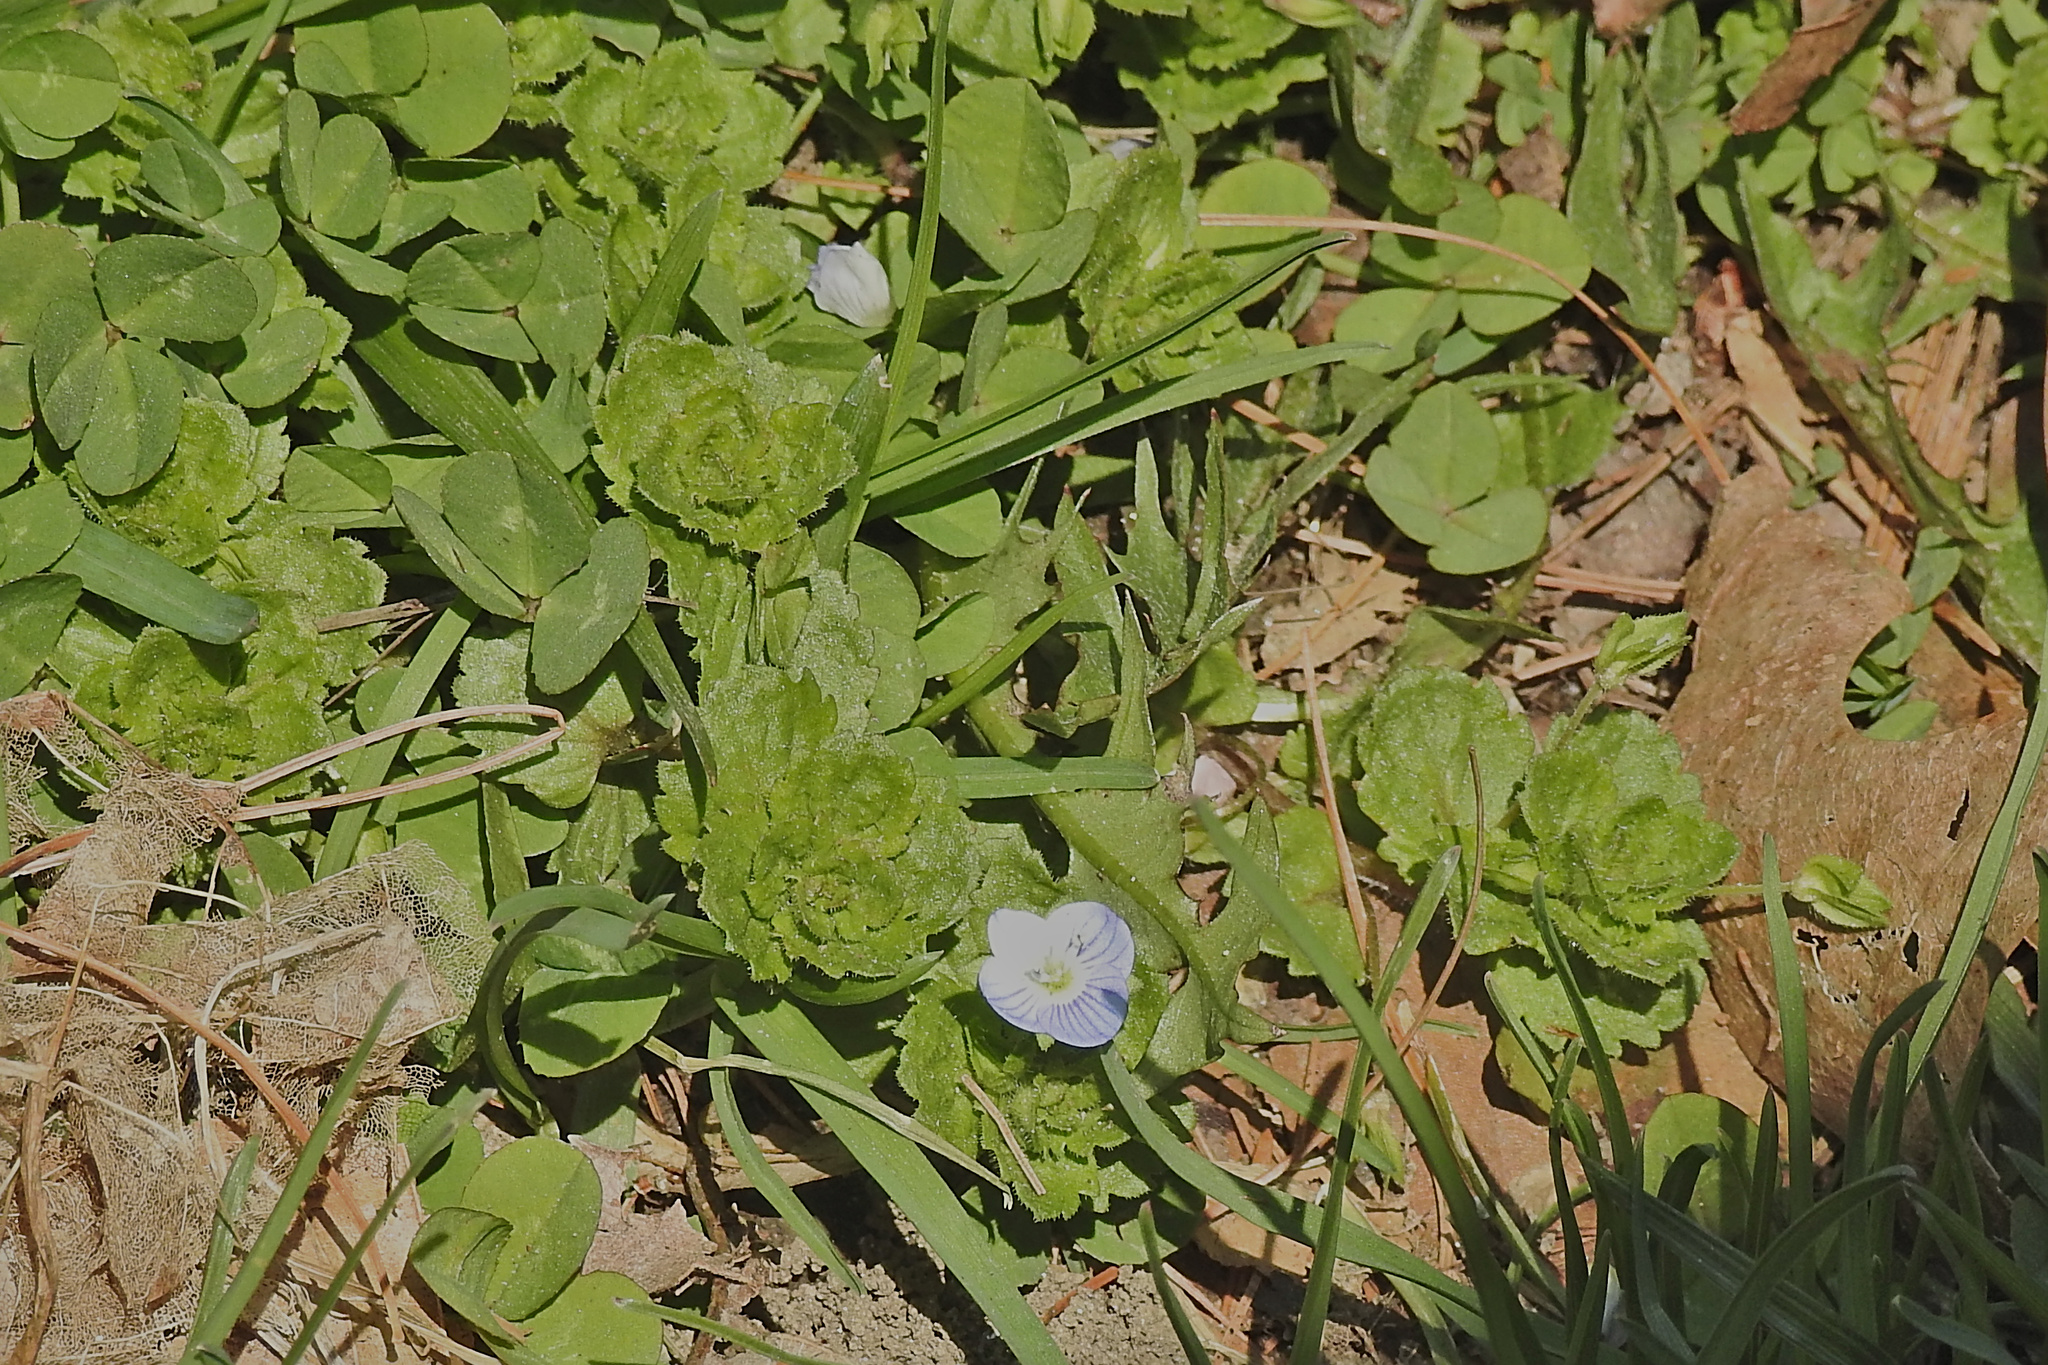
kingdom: Plantae
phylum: Tracheophyta
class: Magnoliopsida
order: Lamiales
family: Plantaginaceae
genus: Veronica
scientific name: Veronica persica
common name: Common field-speedwell
